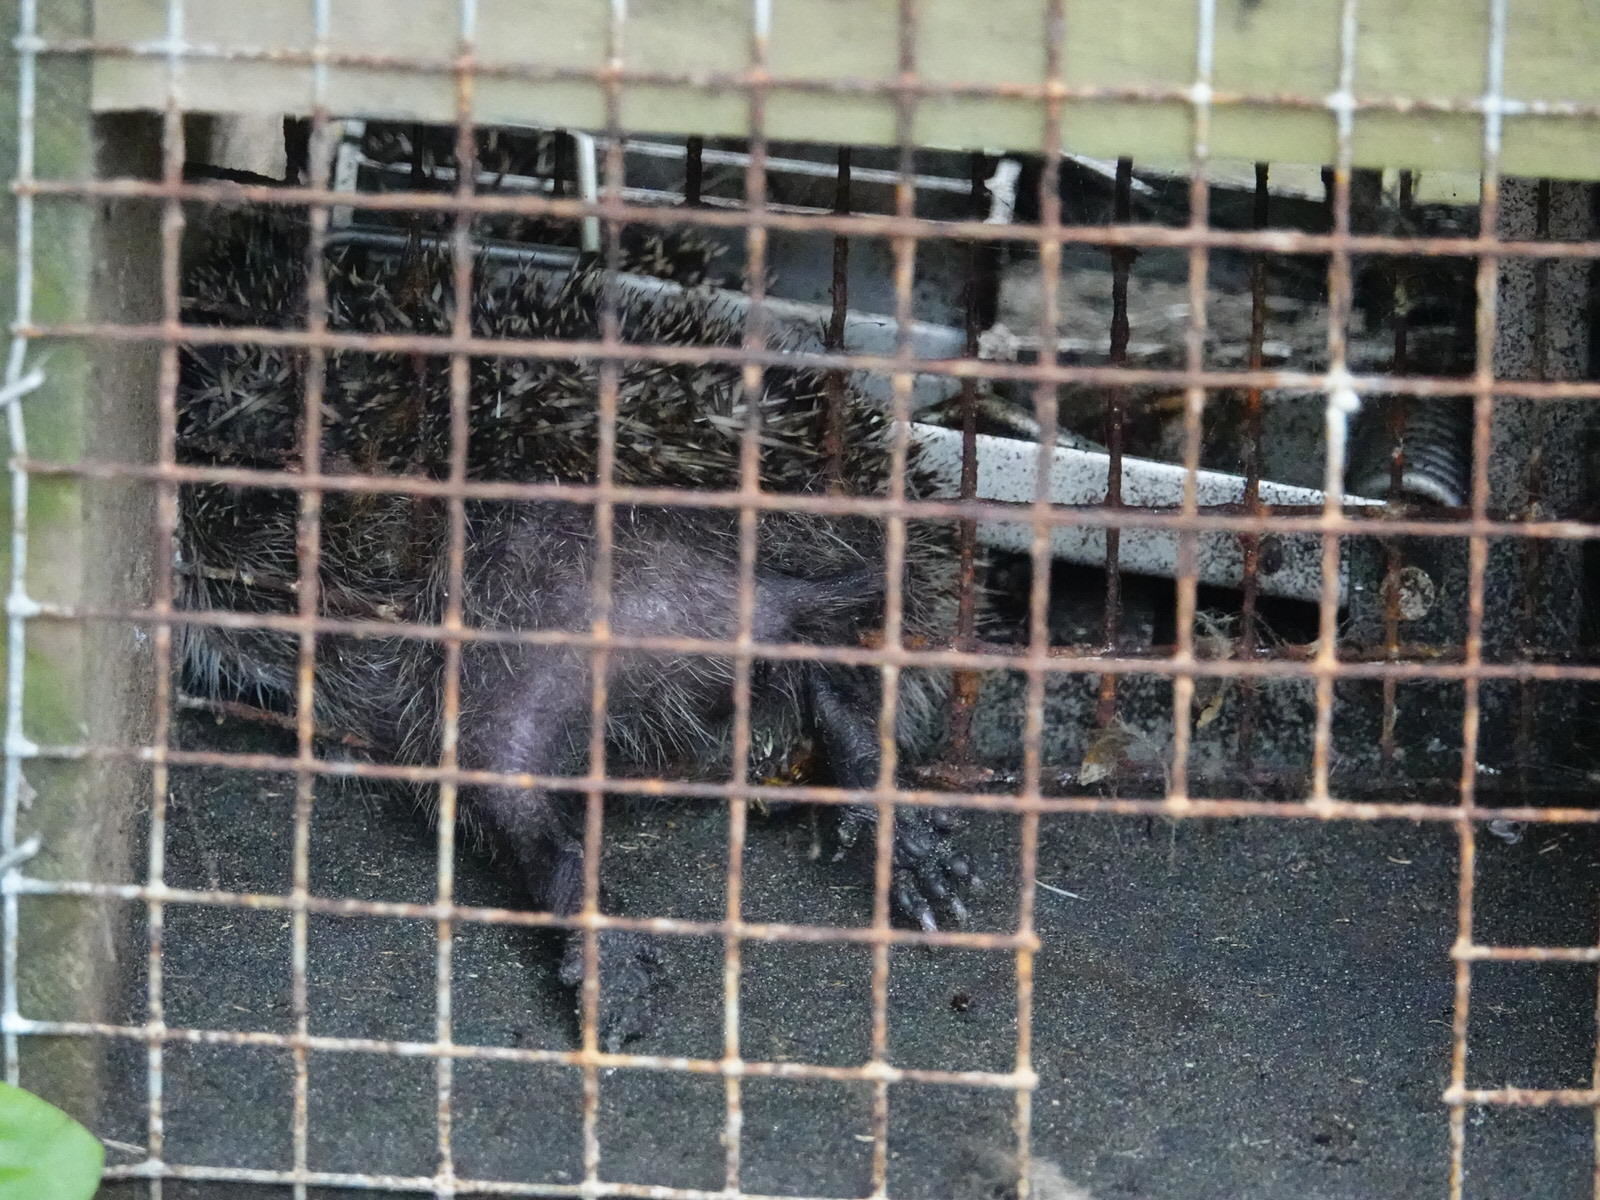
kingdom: Animalia
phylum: Chordata
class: Mammalia
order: Erinaceomorpha
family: Erinaceidae
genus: Erinaceus
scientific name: Erinaceus europaeus
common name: West european hedgehog
